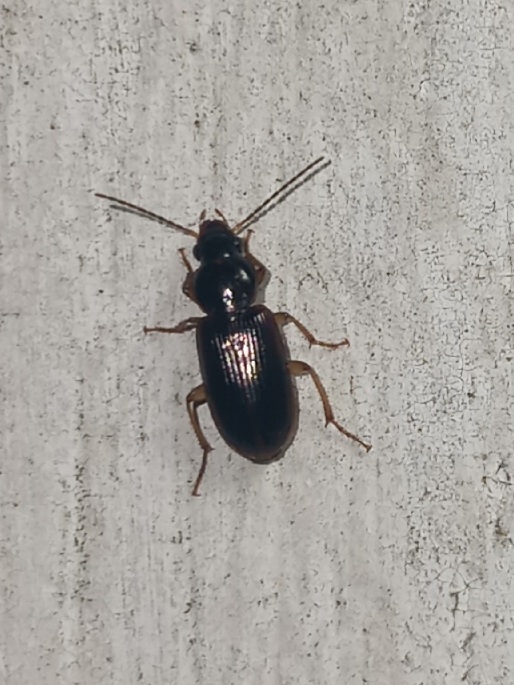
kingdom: Animalia
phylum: Arthropoda
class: Insecta
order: Coleoptera
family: Carabidae
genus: Stenolophus
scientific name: Stenolophus ochropezus
